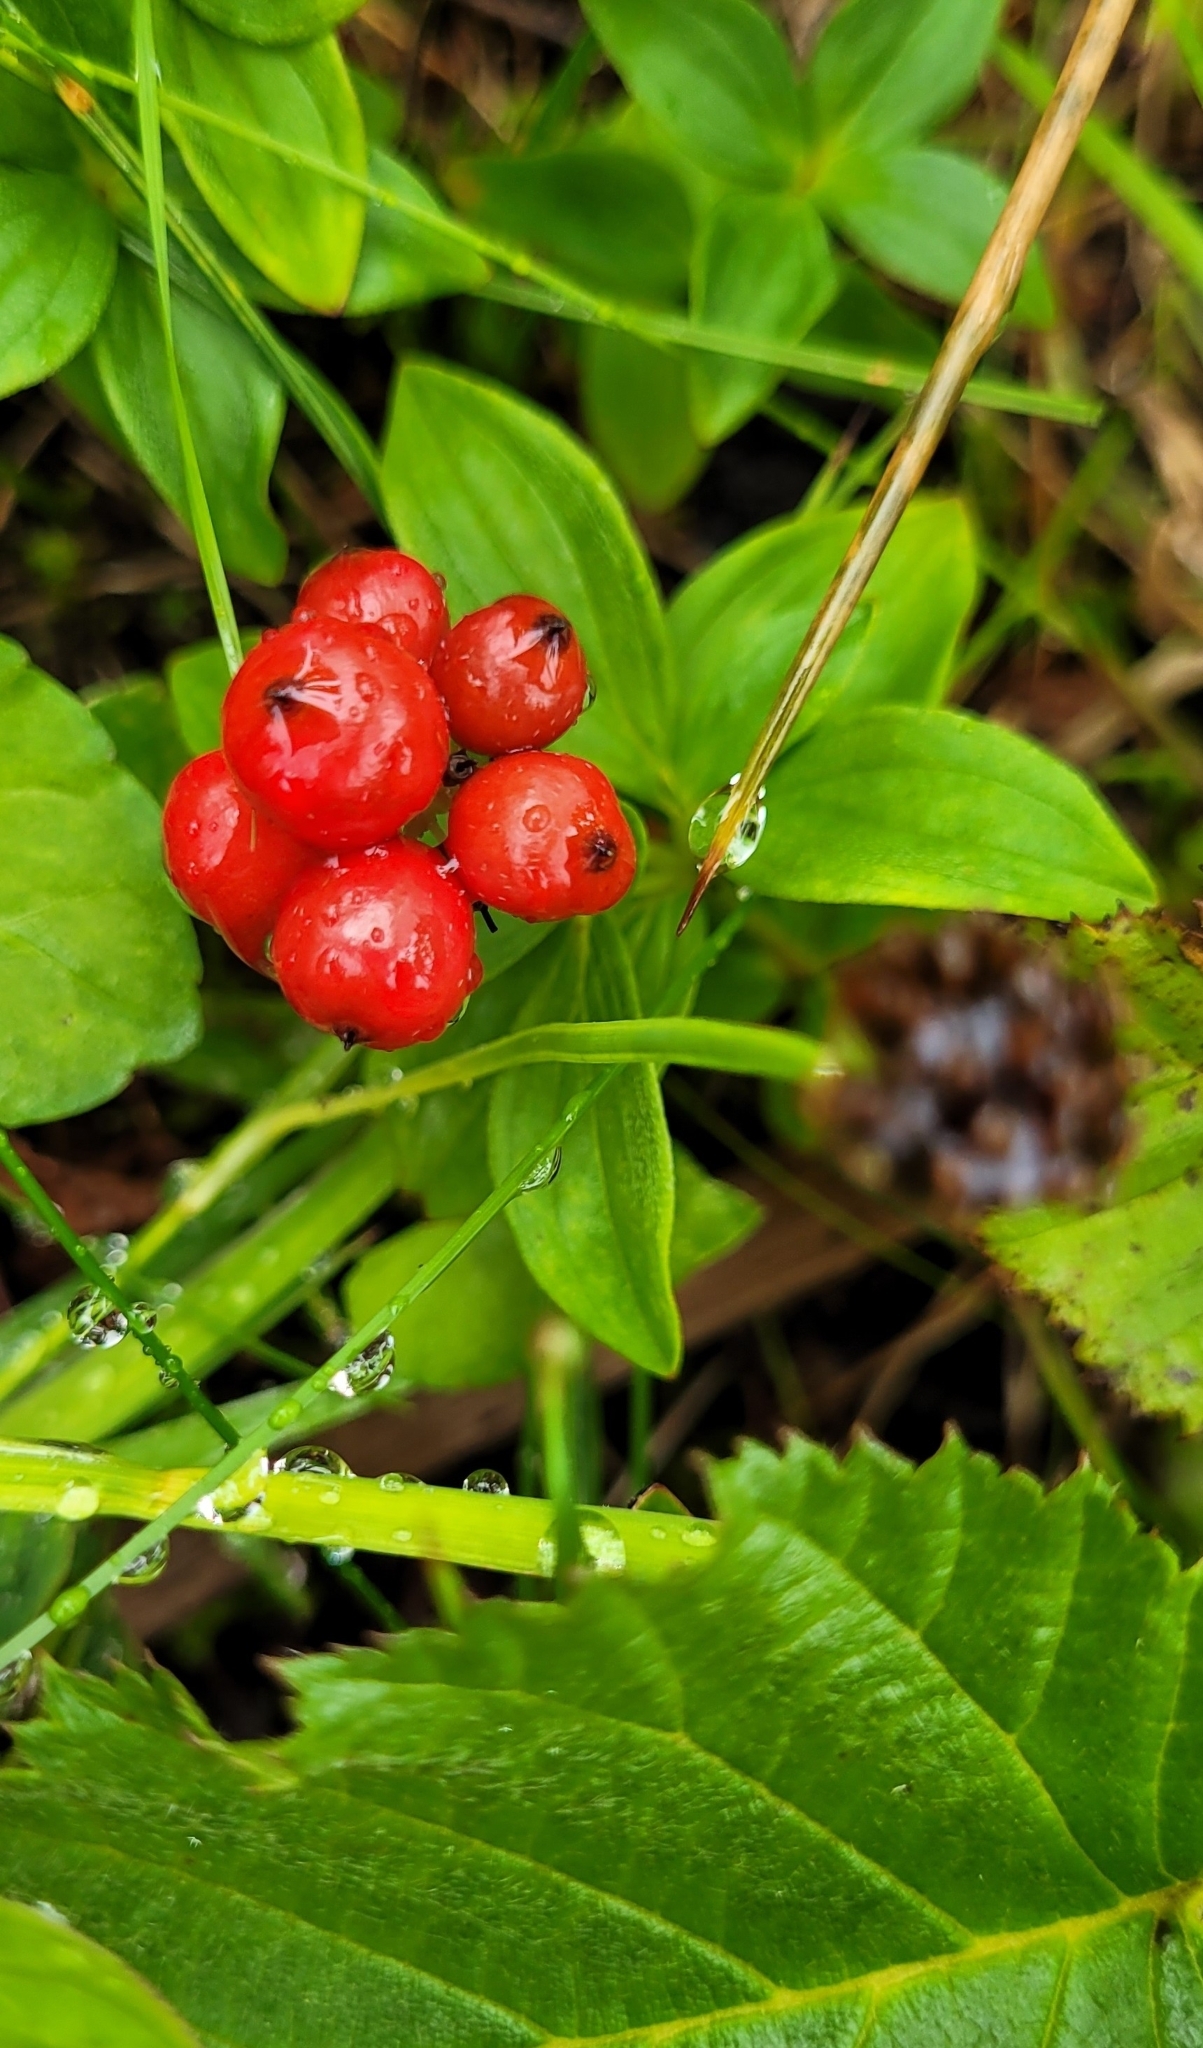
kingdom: Plantae
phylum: Tracheophyta
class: Magnoliopsida
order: Cornales
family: Cornaceae
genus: Cornus
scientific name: Cornus suecica
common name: Dwarf cornel
